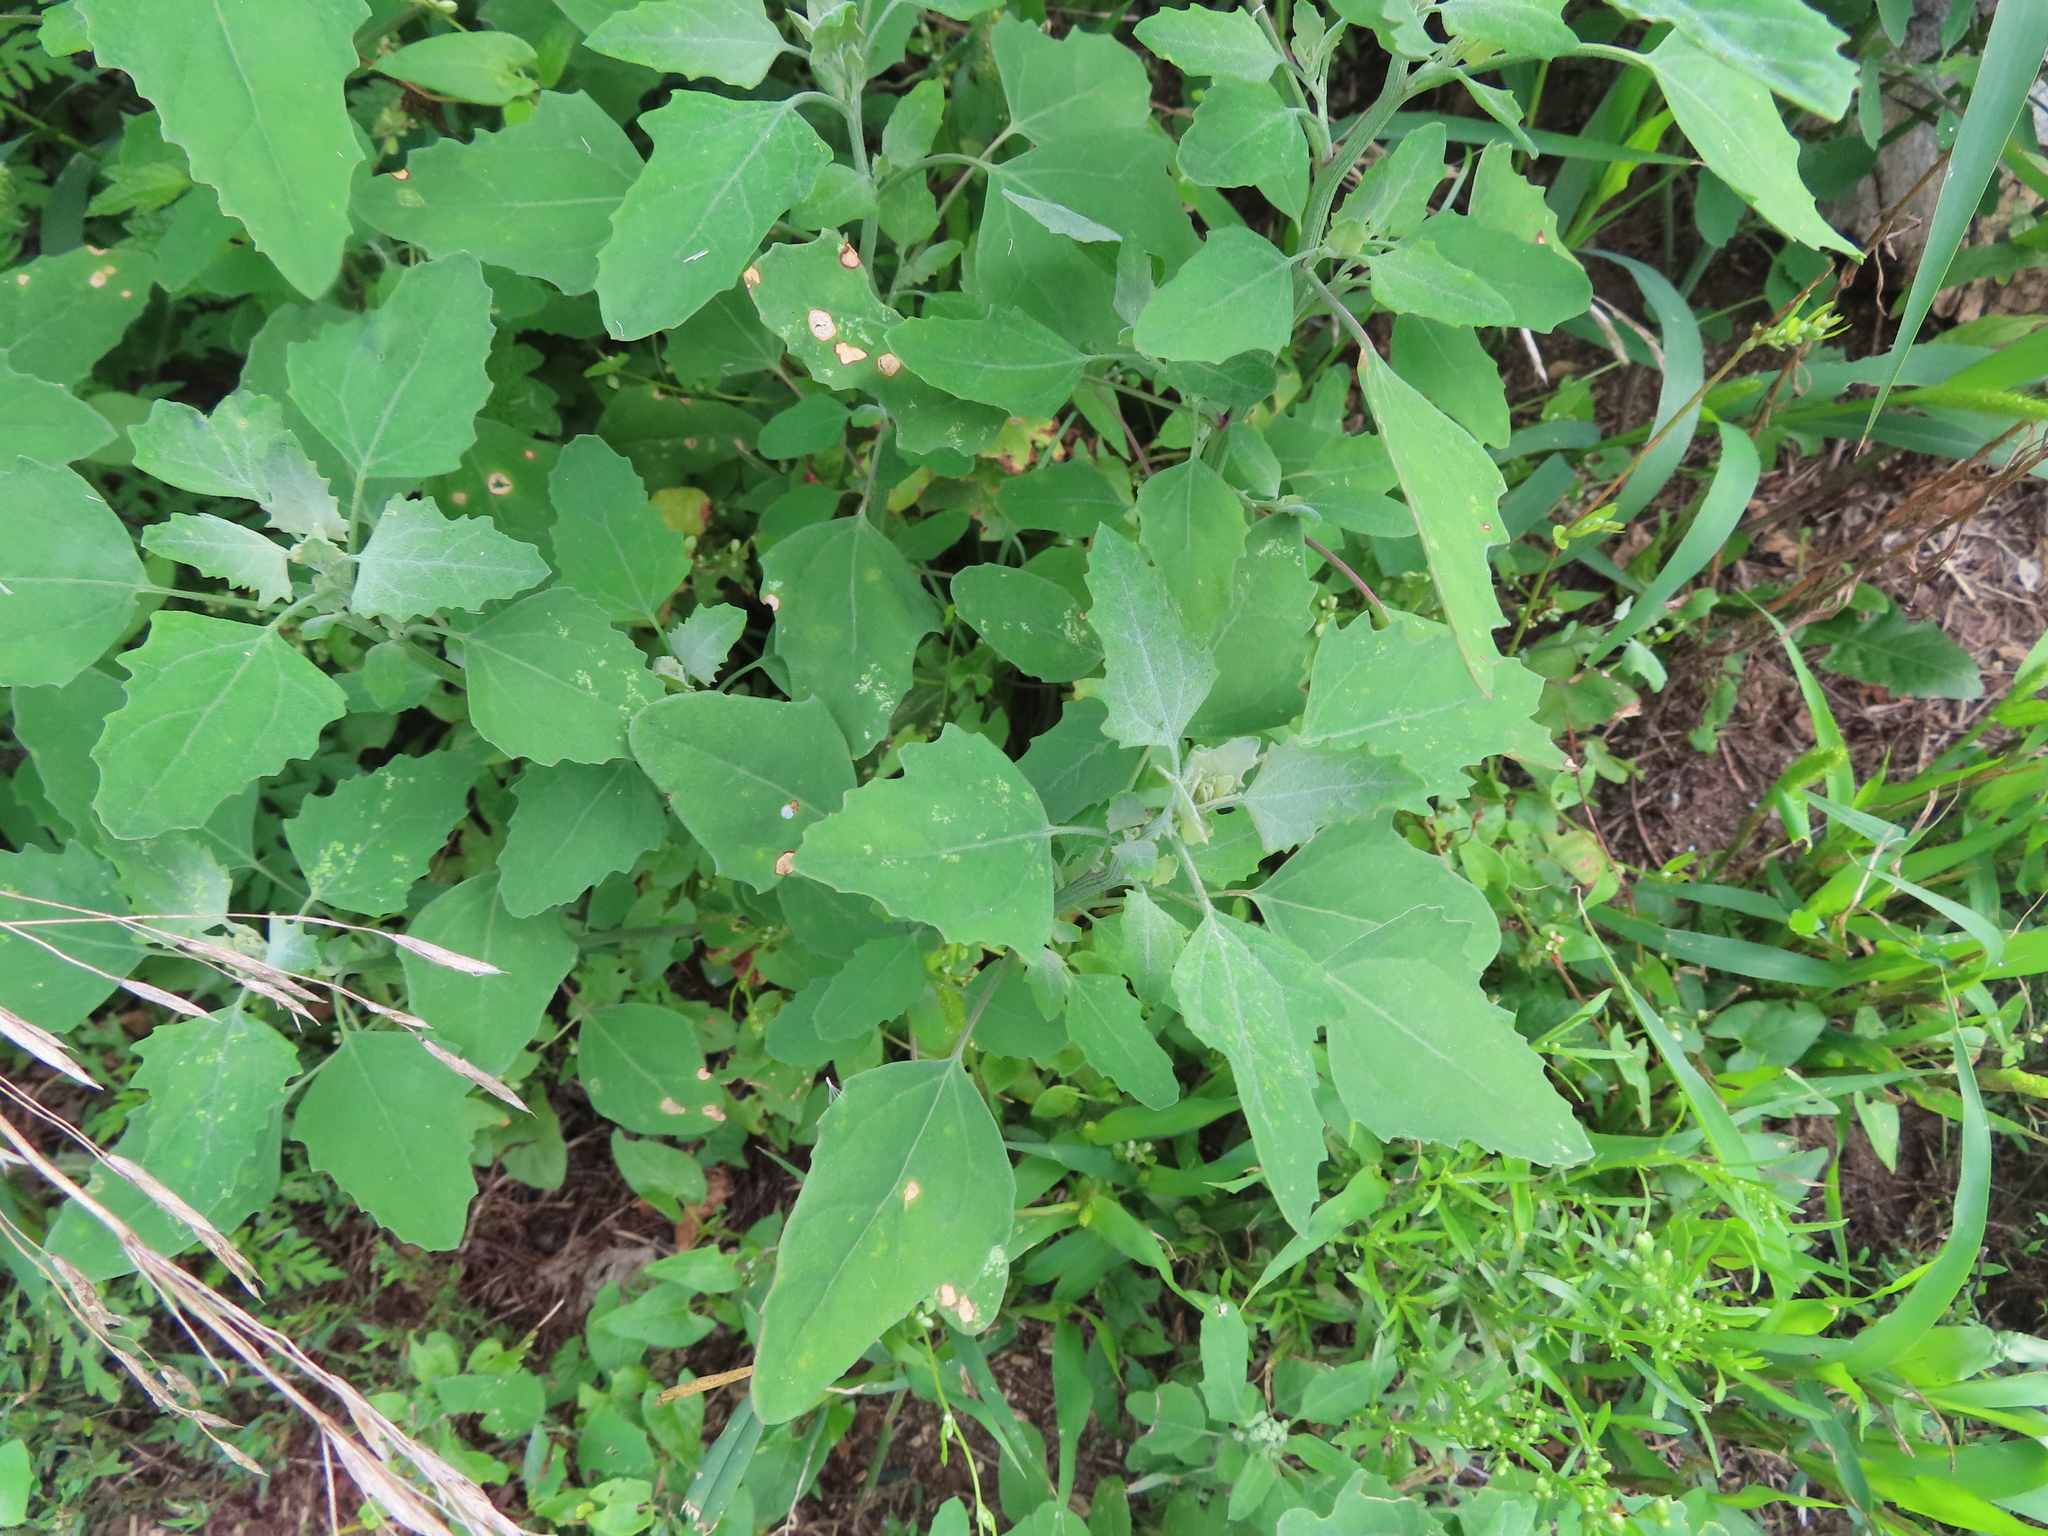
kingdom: Plantae
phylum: Tracheophyta
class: Magnoliopsida
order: Caryophyllales
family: Amaranthaceae
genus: Chenopodium
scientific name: Chenopodium album
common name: Fat-hen
